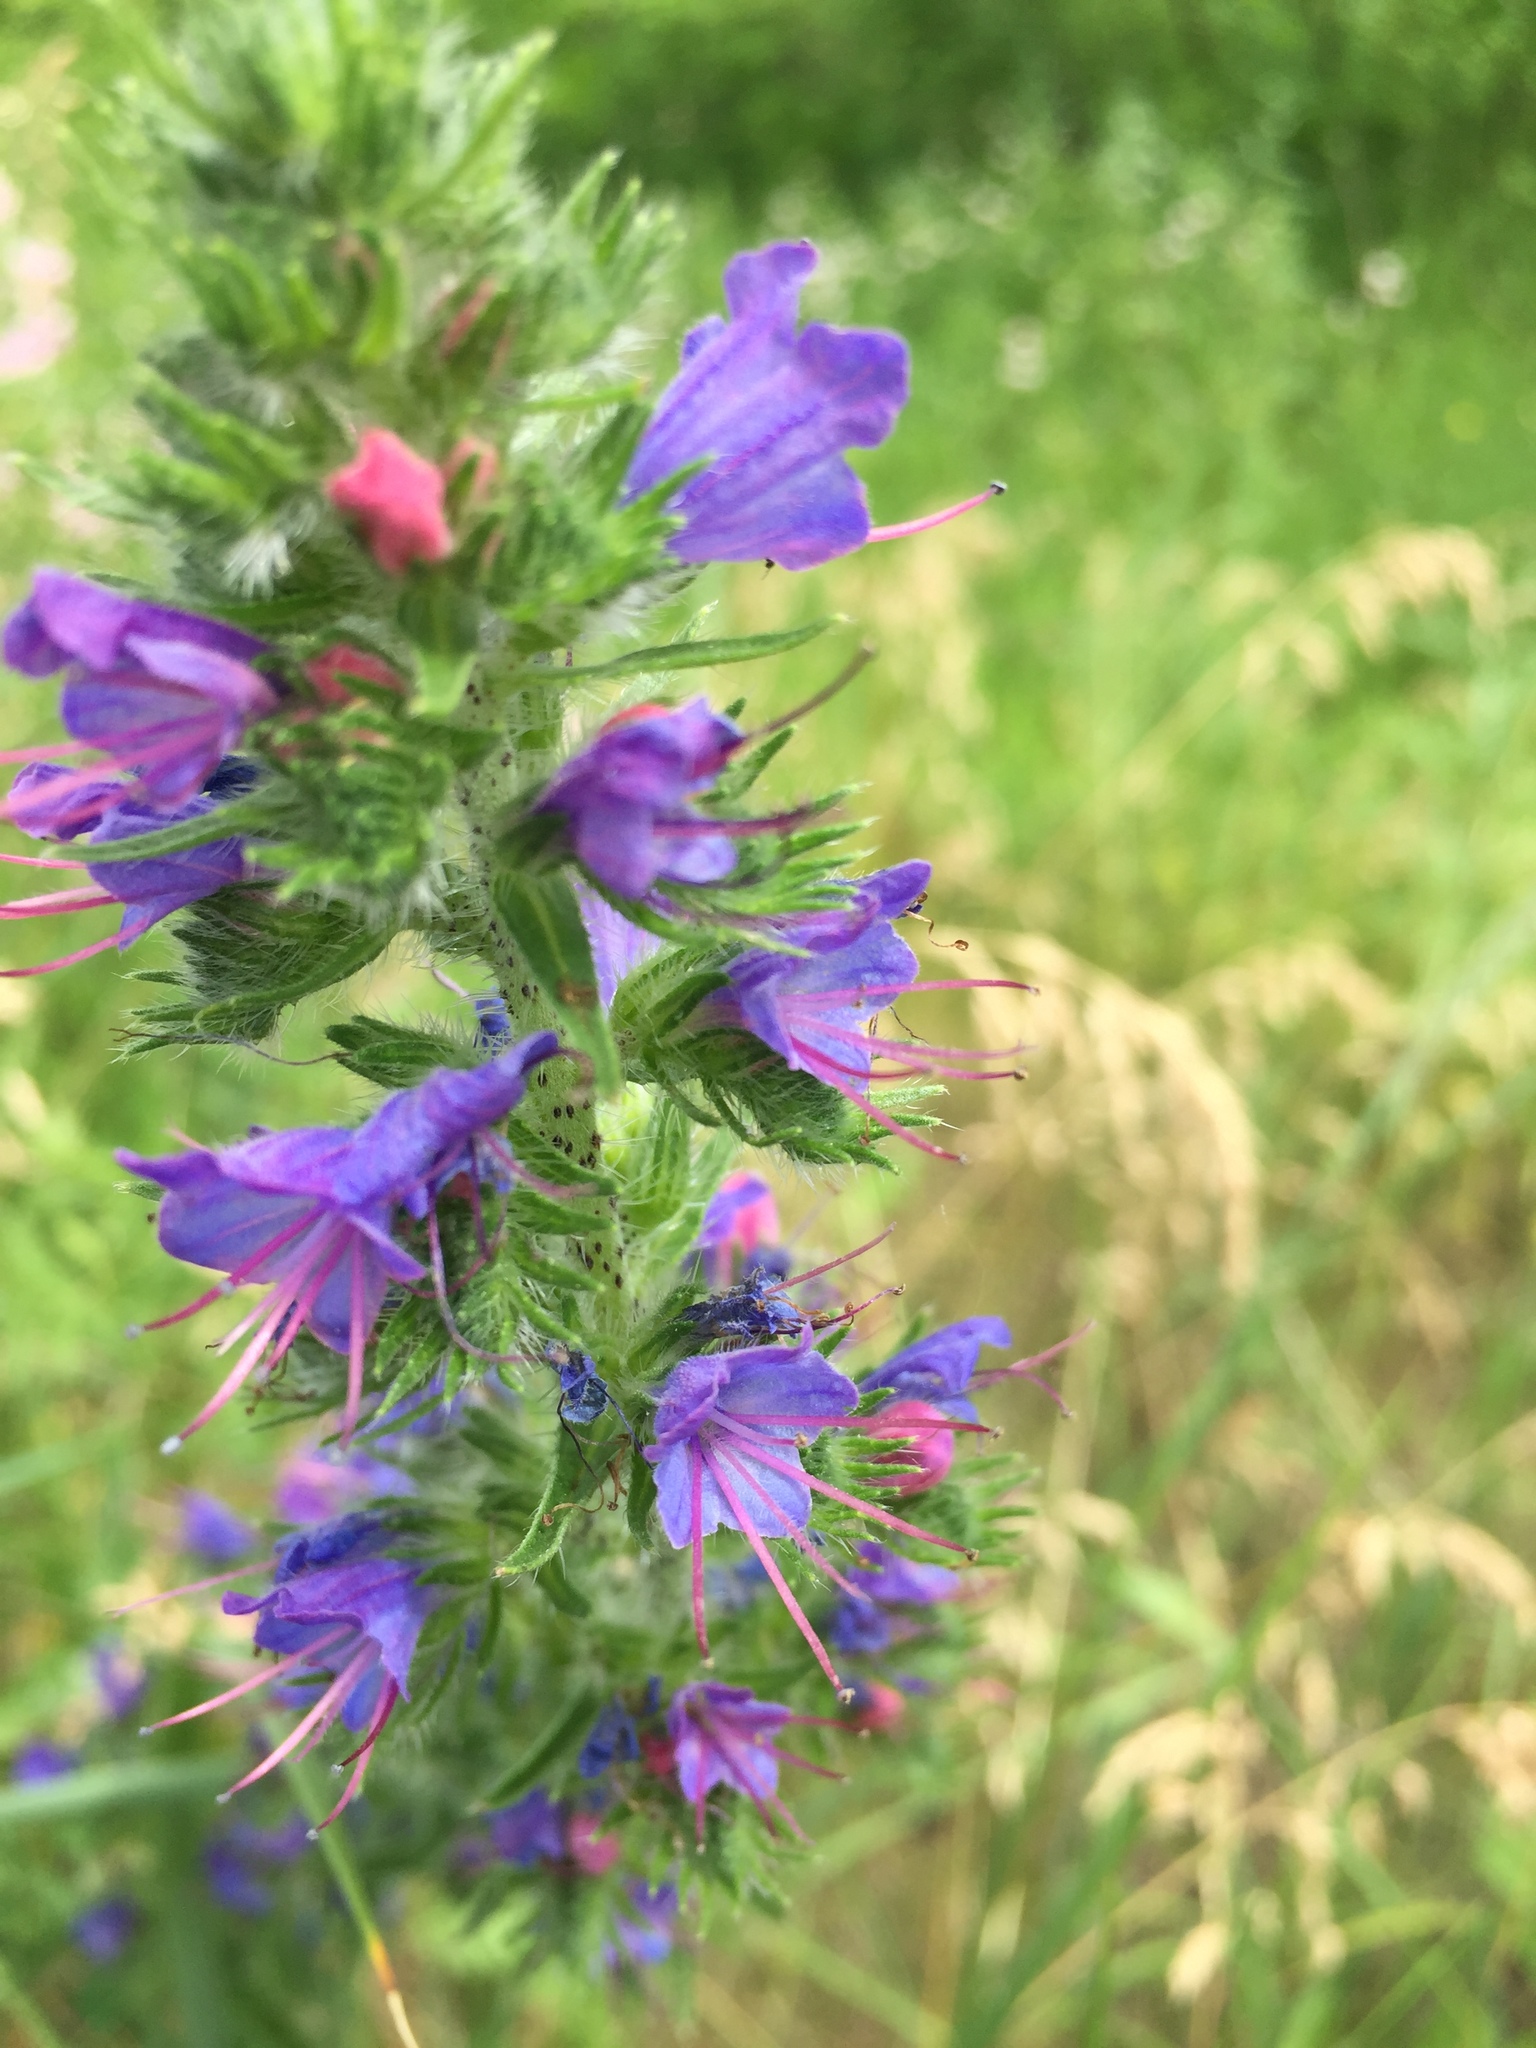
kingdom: Plantae
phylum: Tracheophyta
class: Magnoliopsida
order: Boraginales
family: Boraginaceae
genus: Echium
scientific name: Echium vulgare
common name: Common viper's bugloss
